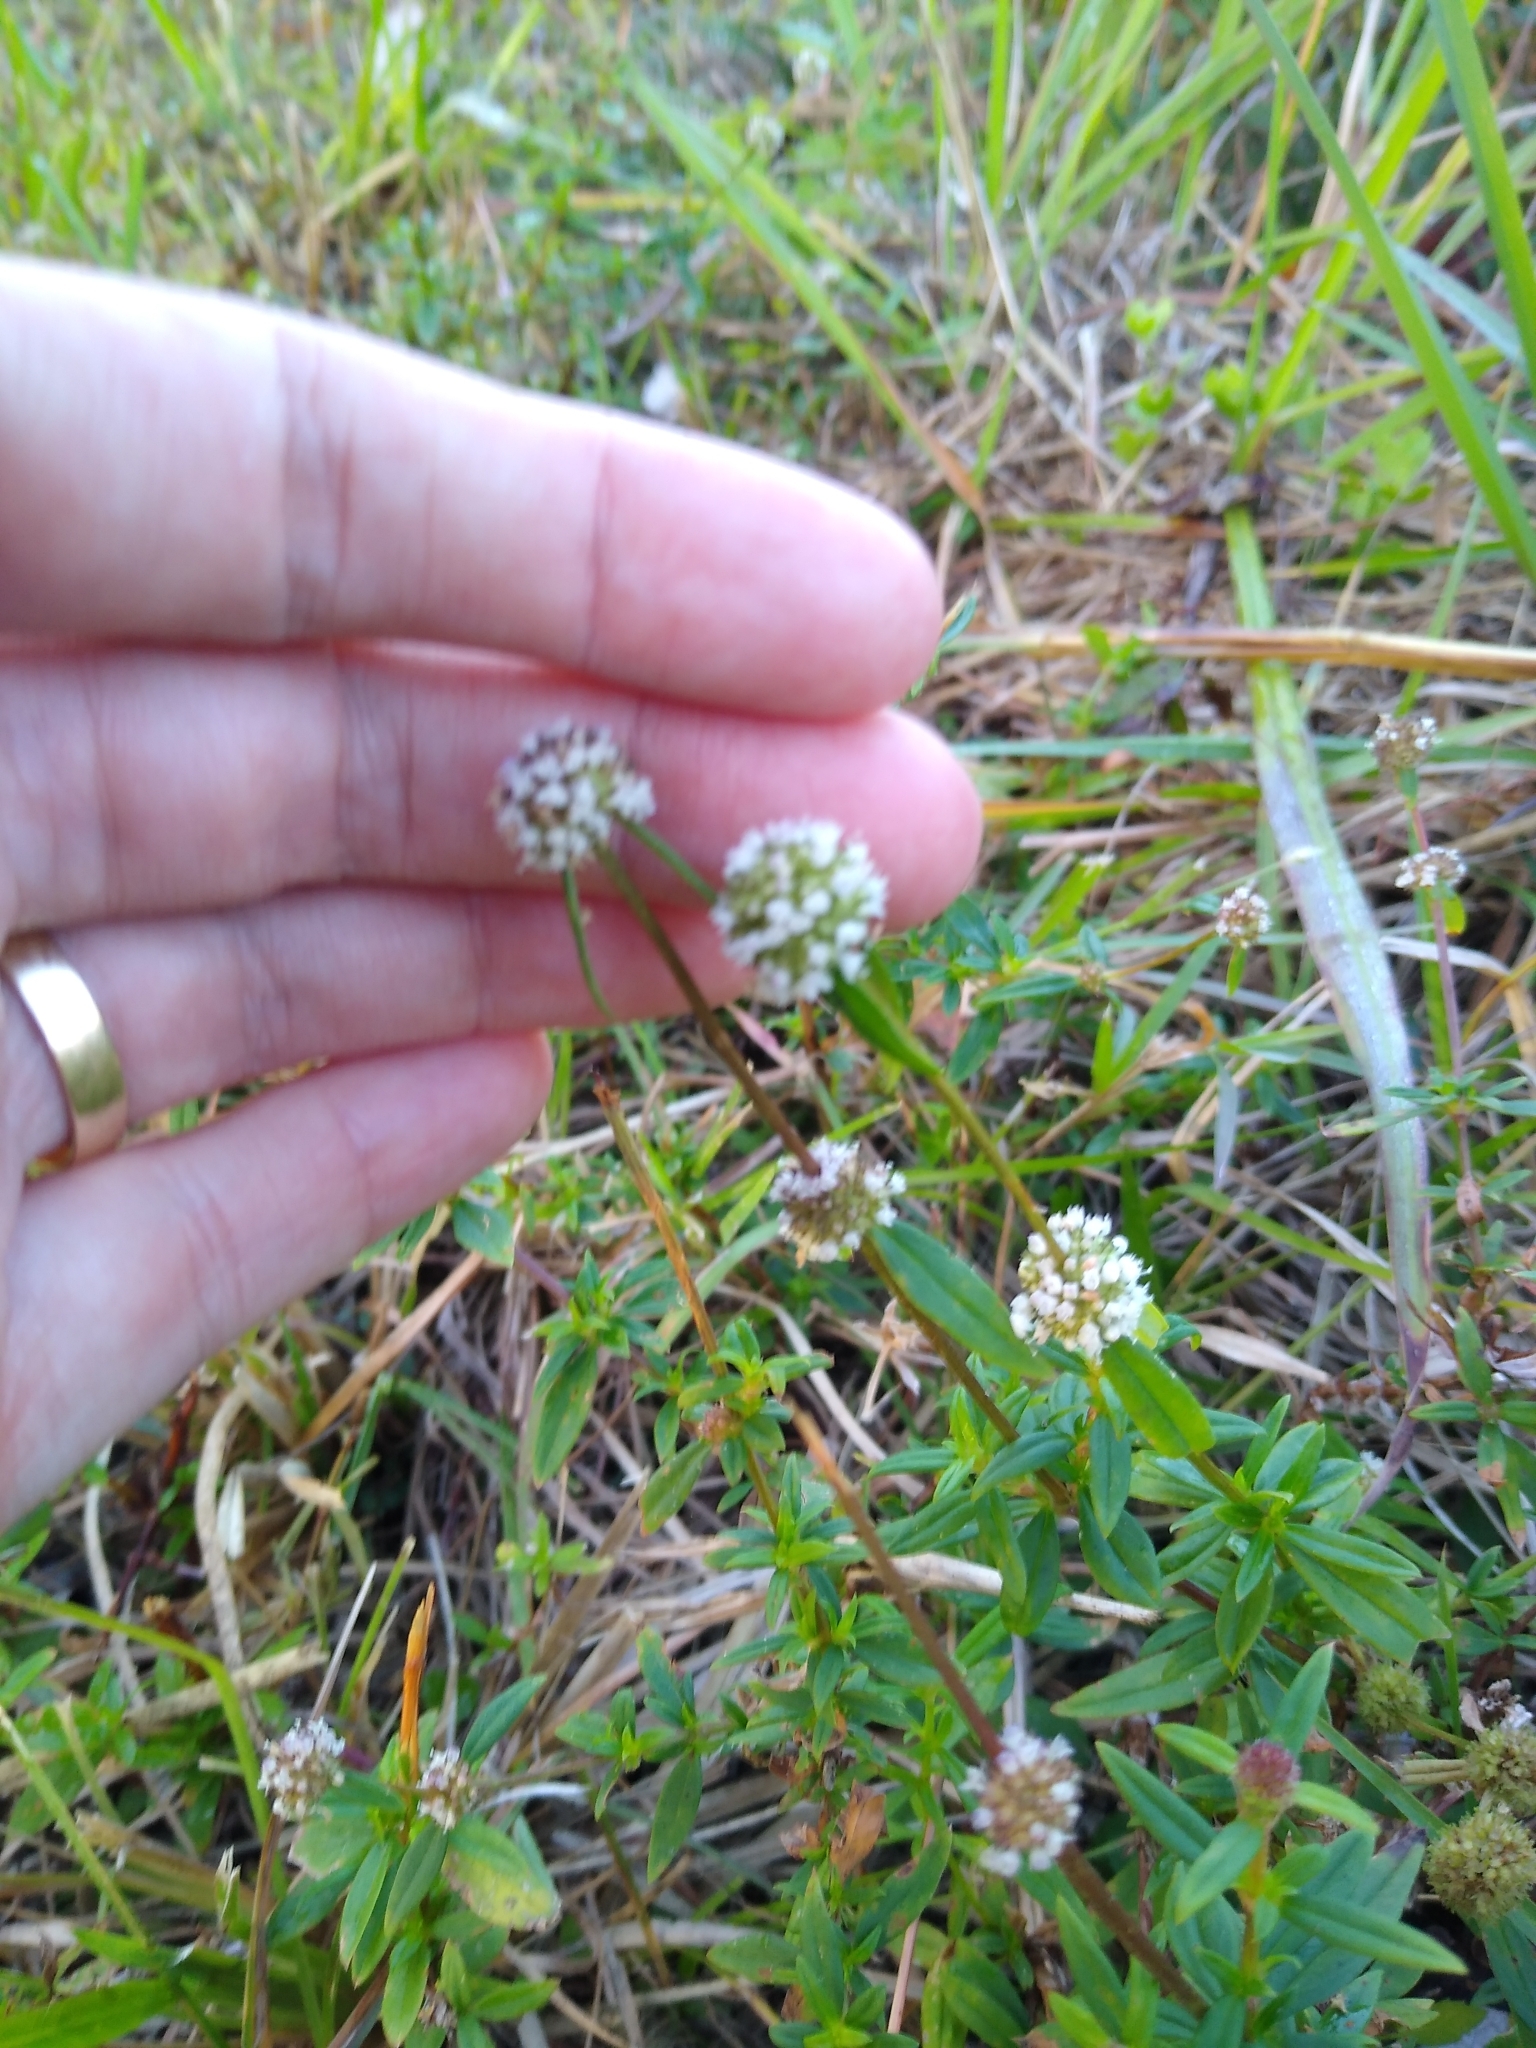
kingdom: Plantae
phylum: Tracheophyta
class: Magnoliopsida
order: Gentianales
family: Rubiaceae
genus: Spermacoce
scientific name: Spermacoce verticillata
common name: Shrubby false buttonweed
